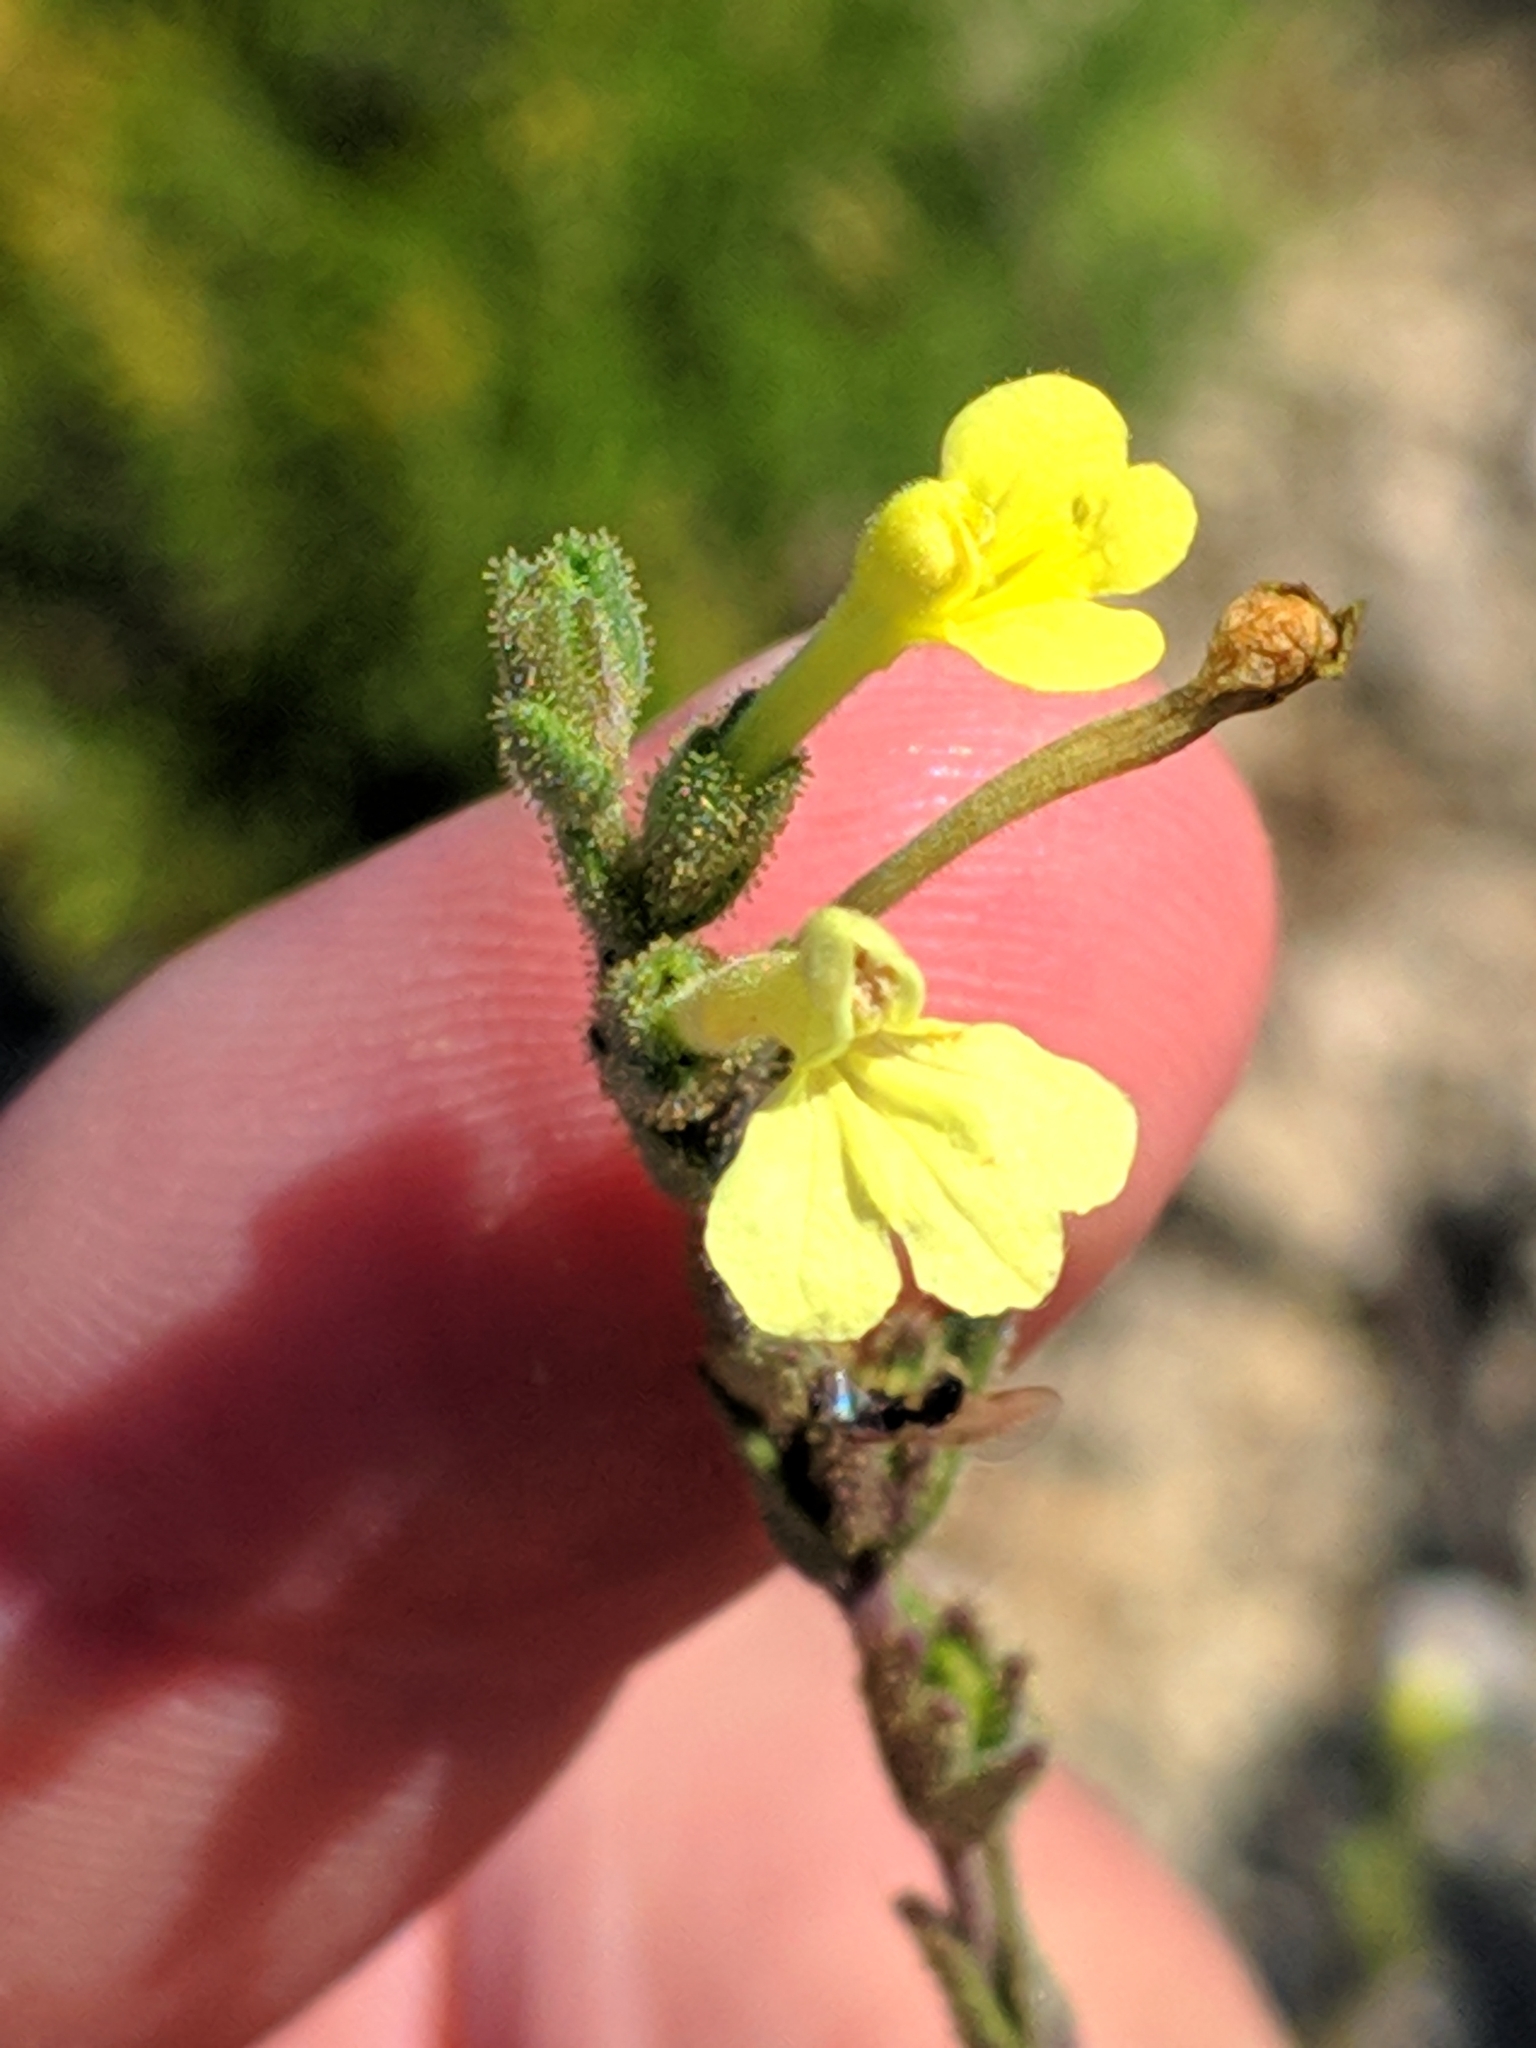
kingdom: Plantae
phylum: Tracheophyta
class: Magnoliopsida
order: Lamiales
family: Orobanchaceae
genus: Odontites
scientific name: Odontites longiflorus
